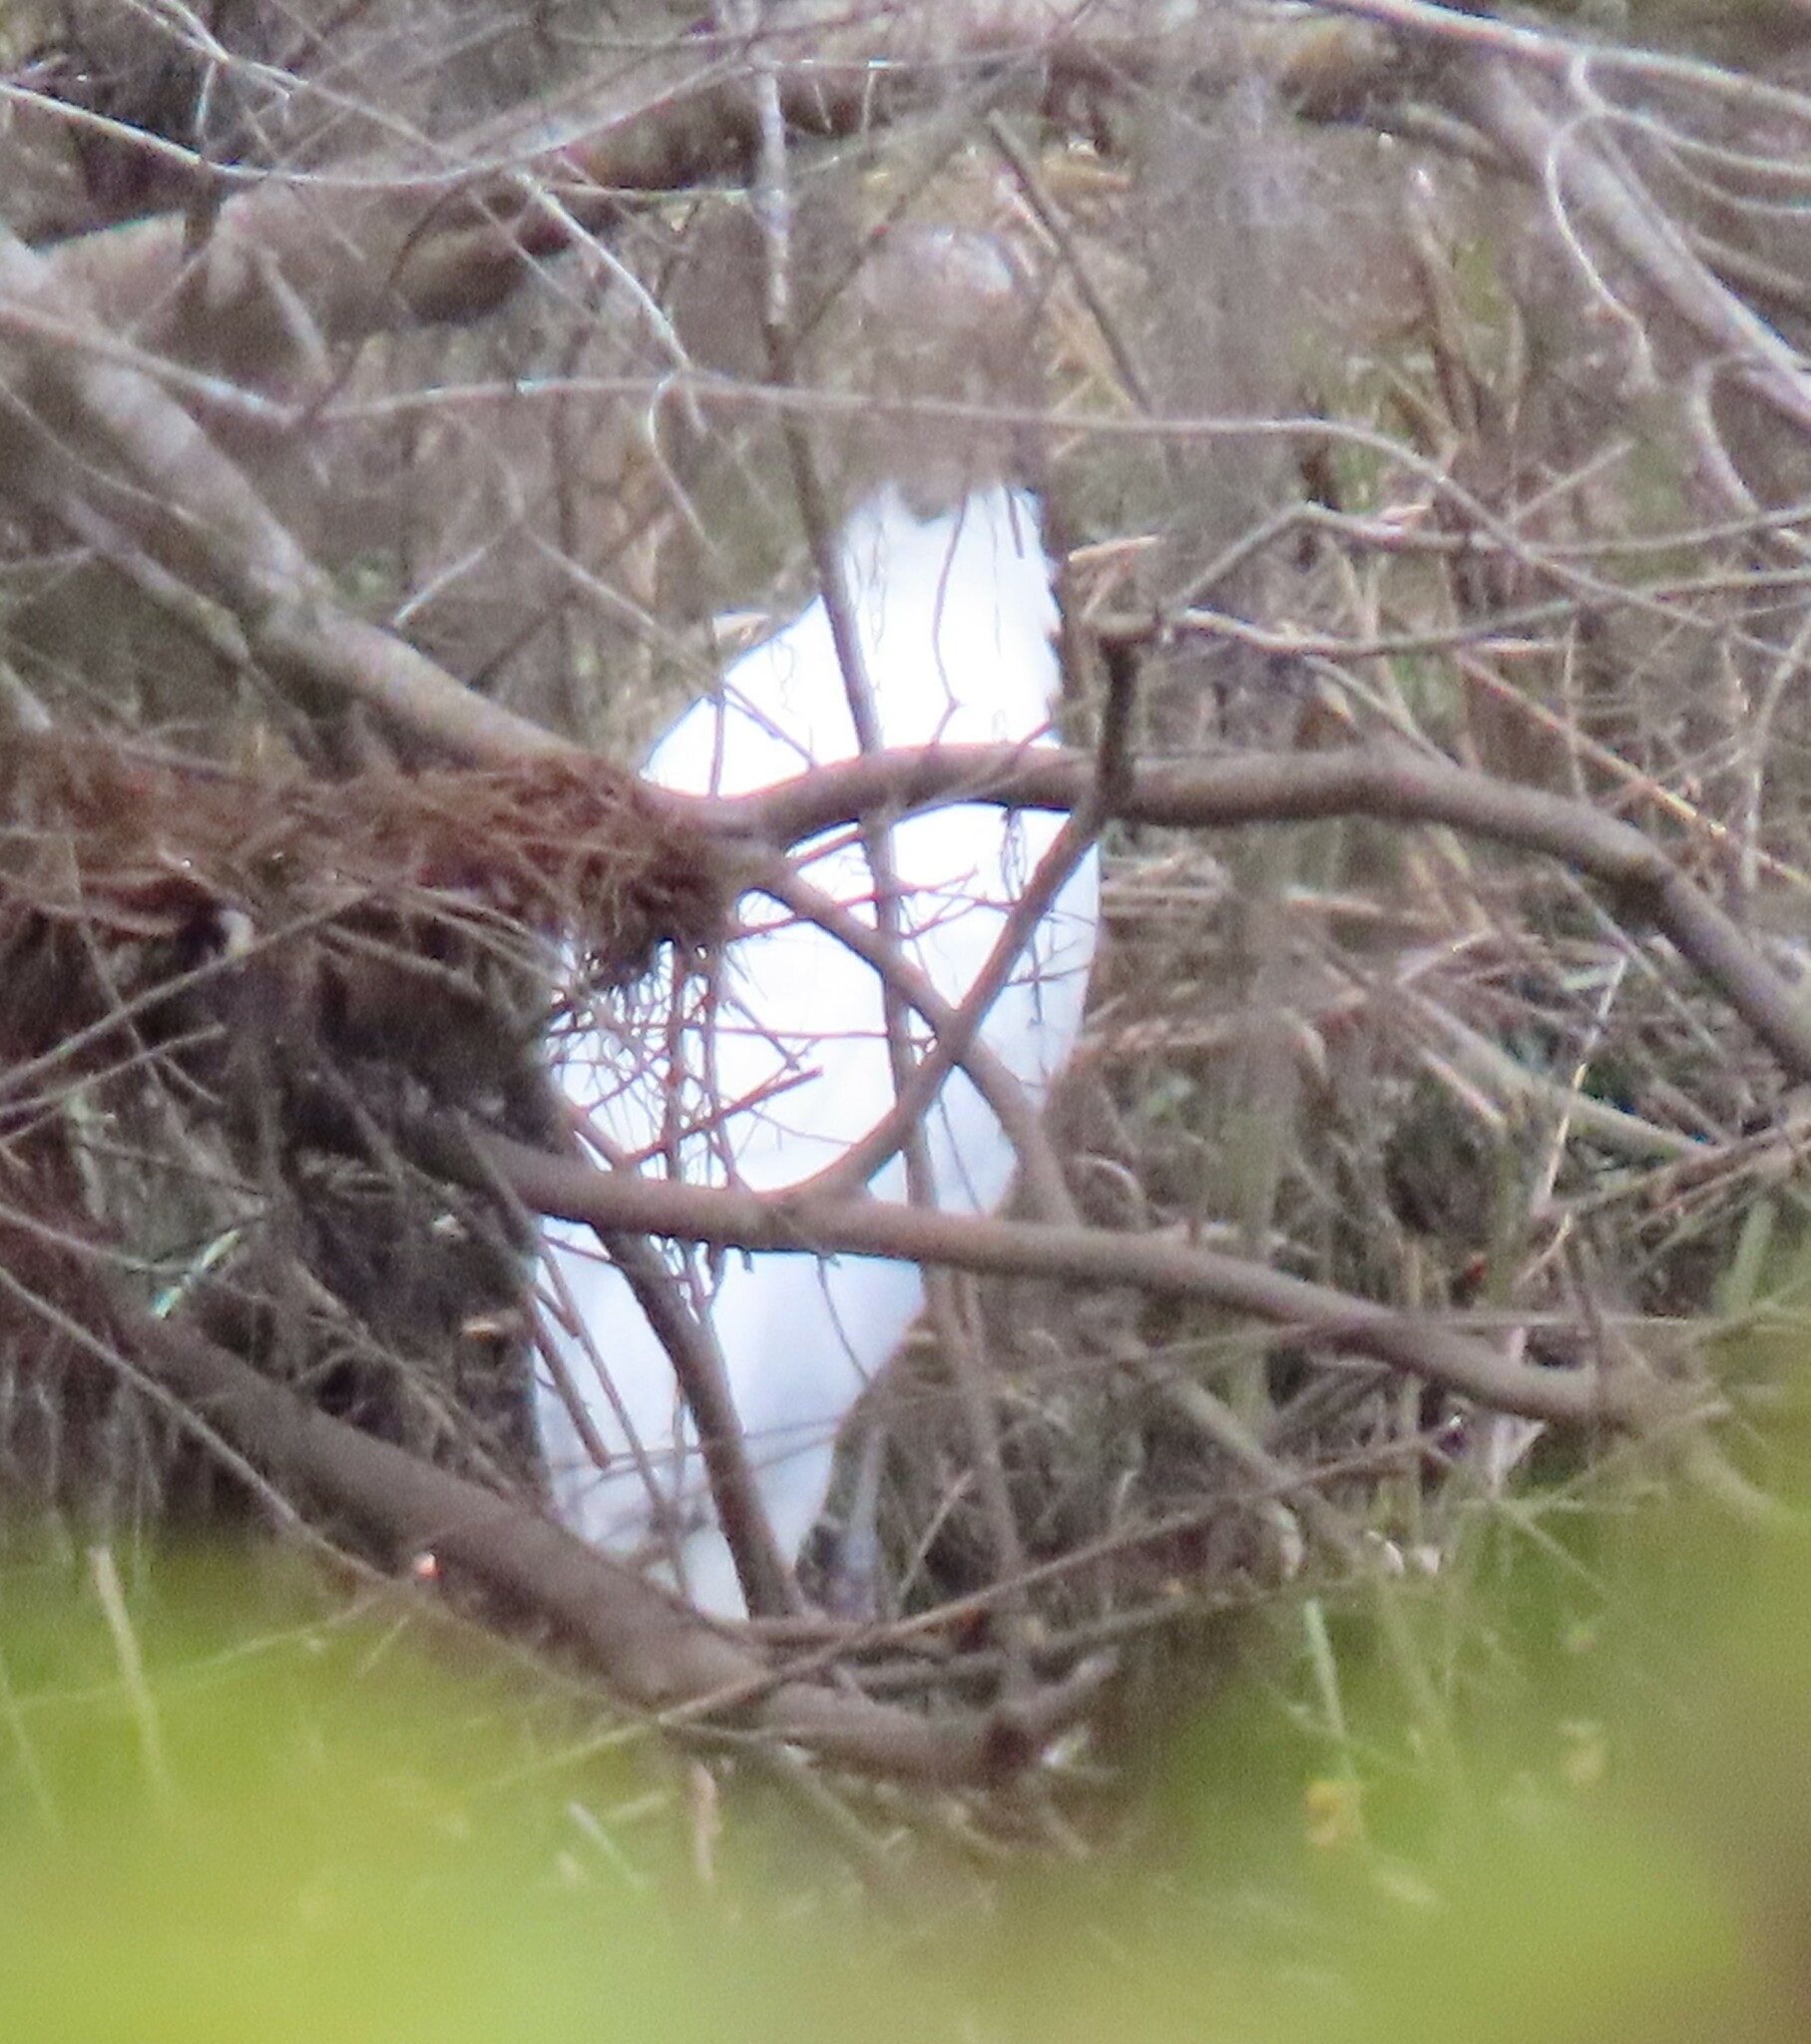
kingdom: Animalia
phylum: Chordata
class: Aves
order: Ciconiiformes
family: Ciconiidae
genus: Mycteria
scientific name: Mycteria americana
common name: Wood stork
